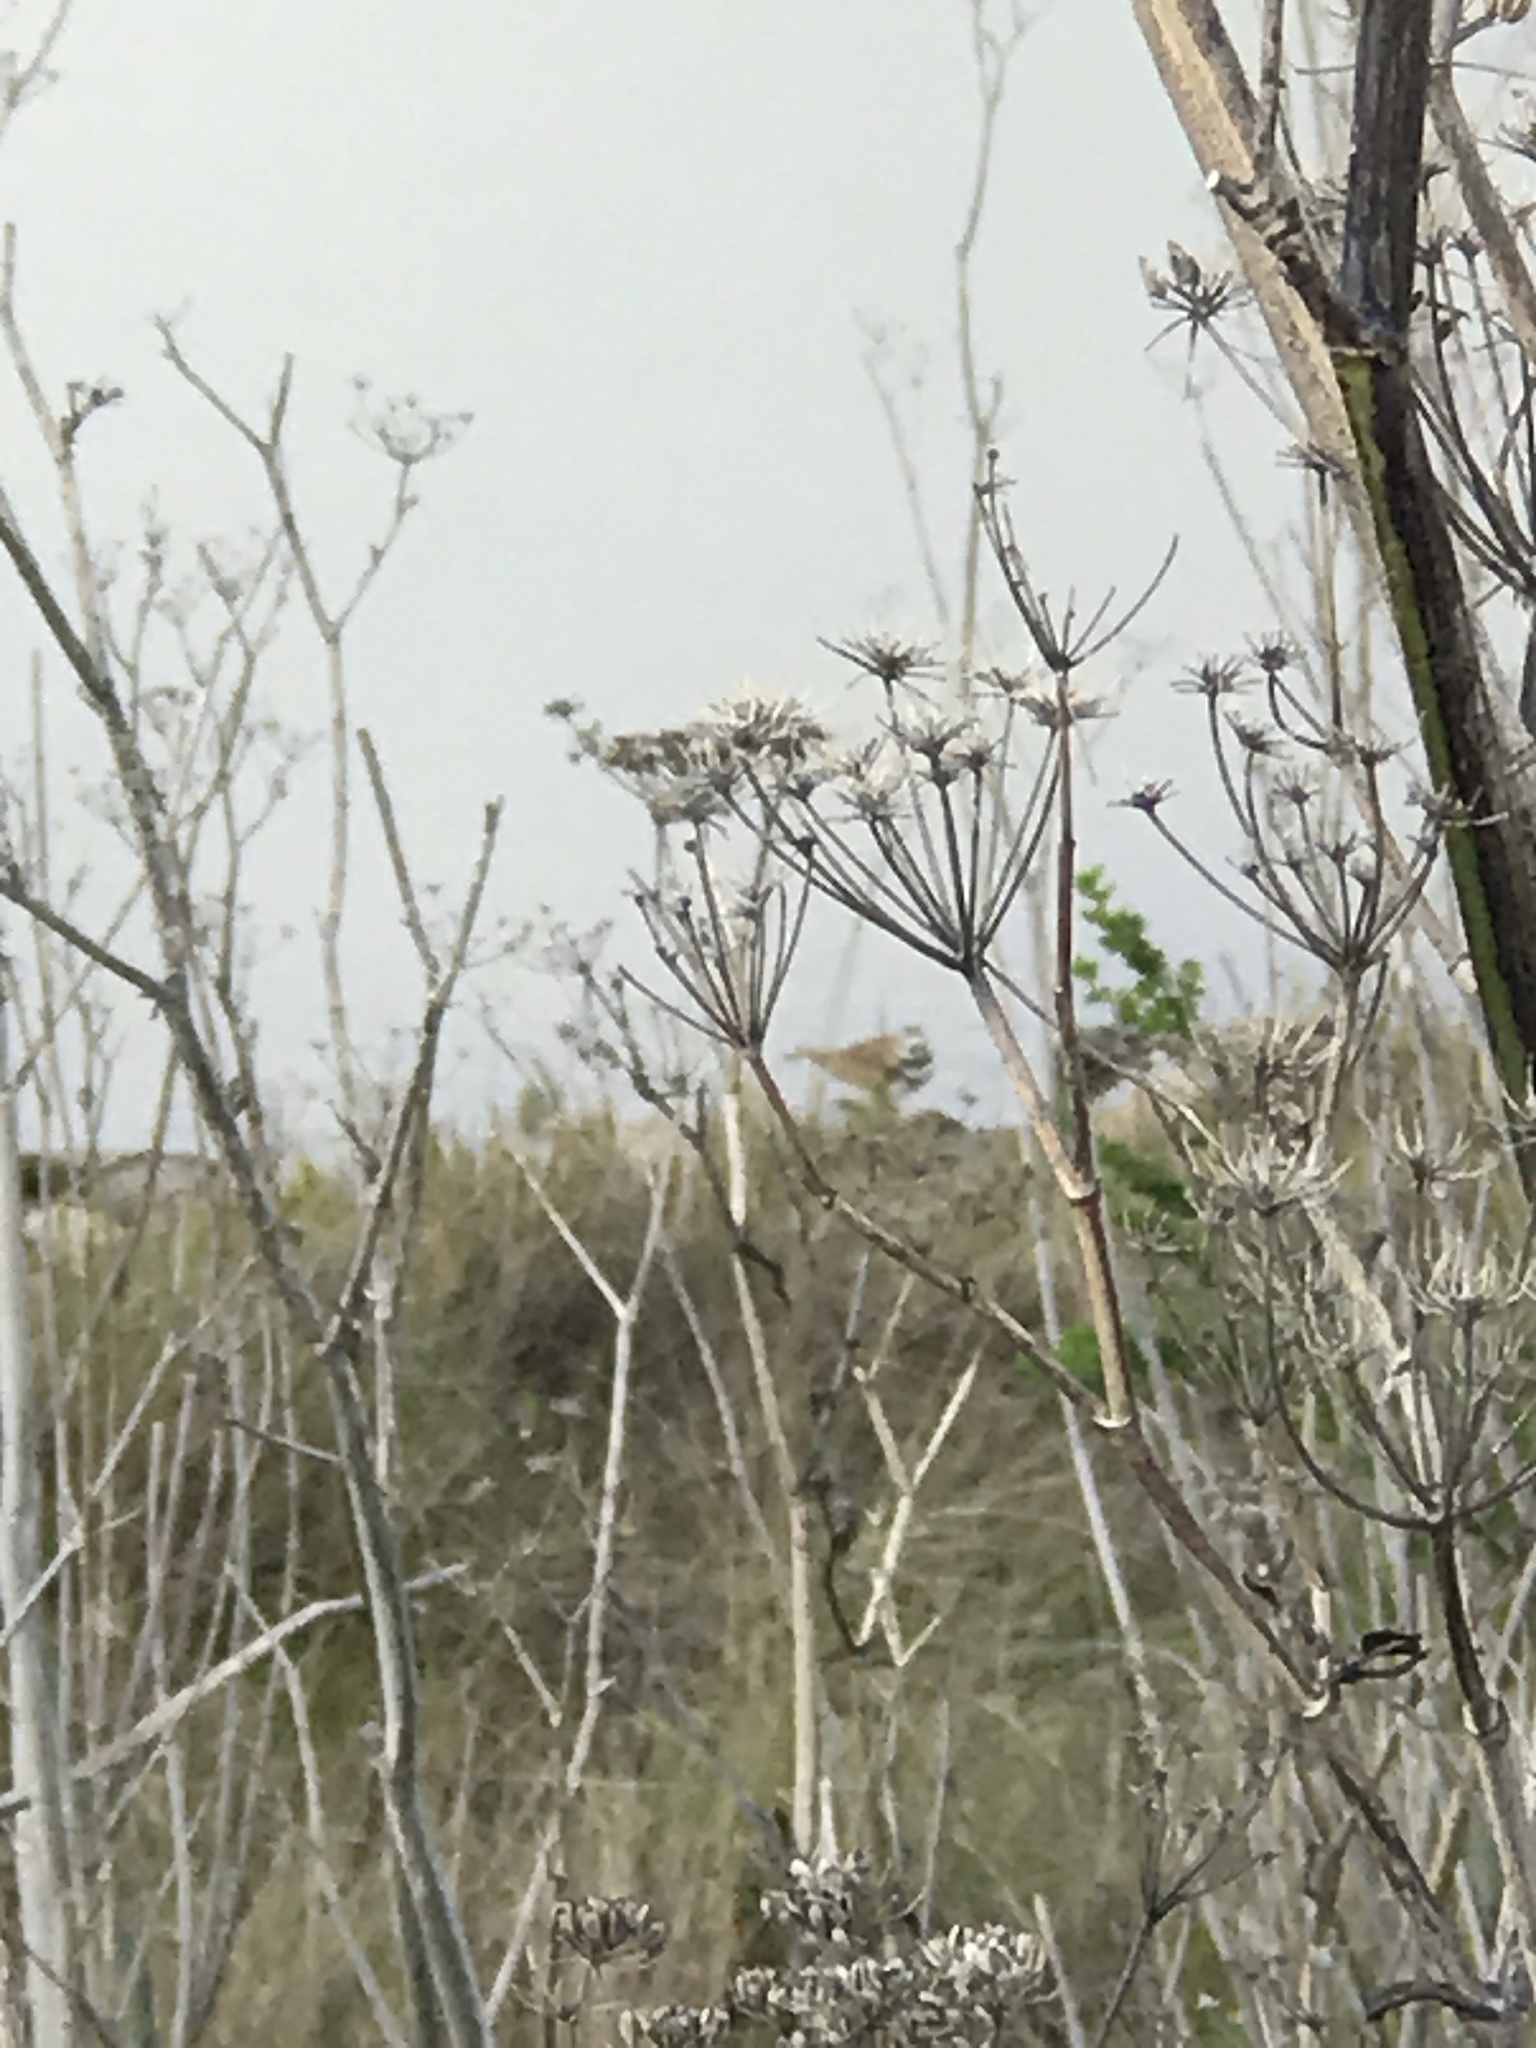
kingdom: Animalia
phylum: Chordata
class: Aves
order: Charadriiformes
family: Charadriidae
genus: Charadrius
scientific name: Charadrius vociferus
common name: Killdeer
